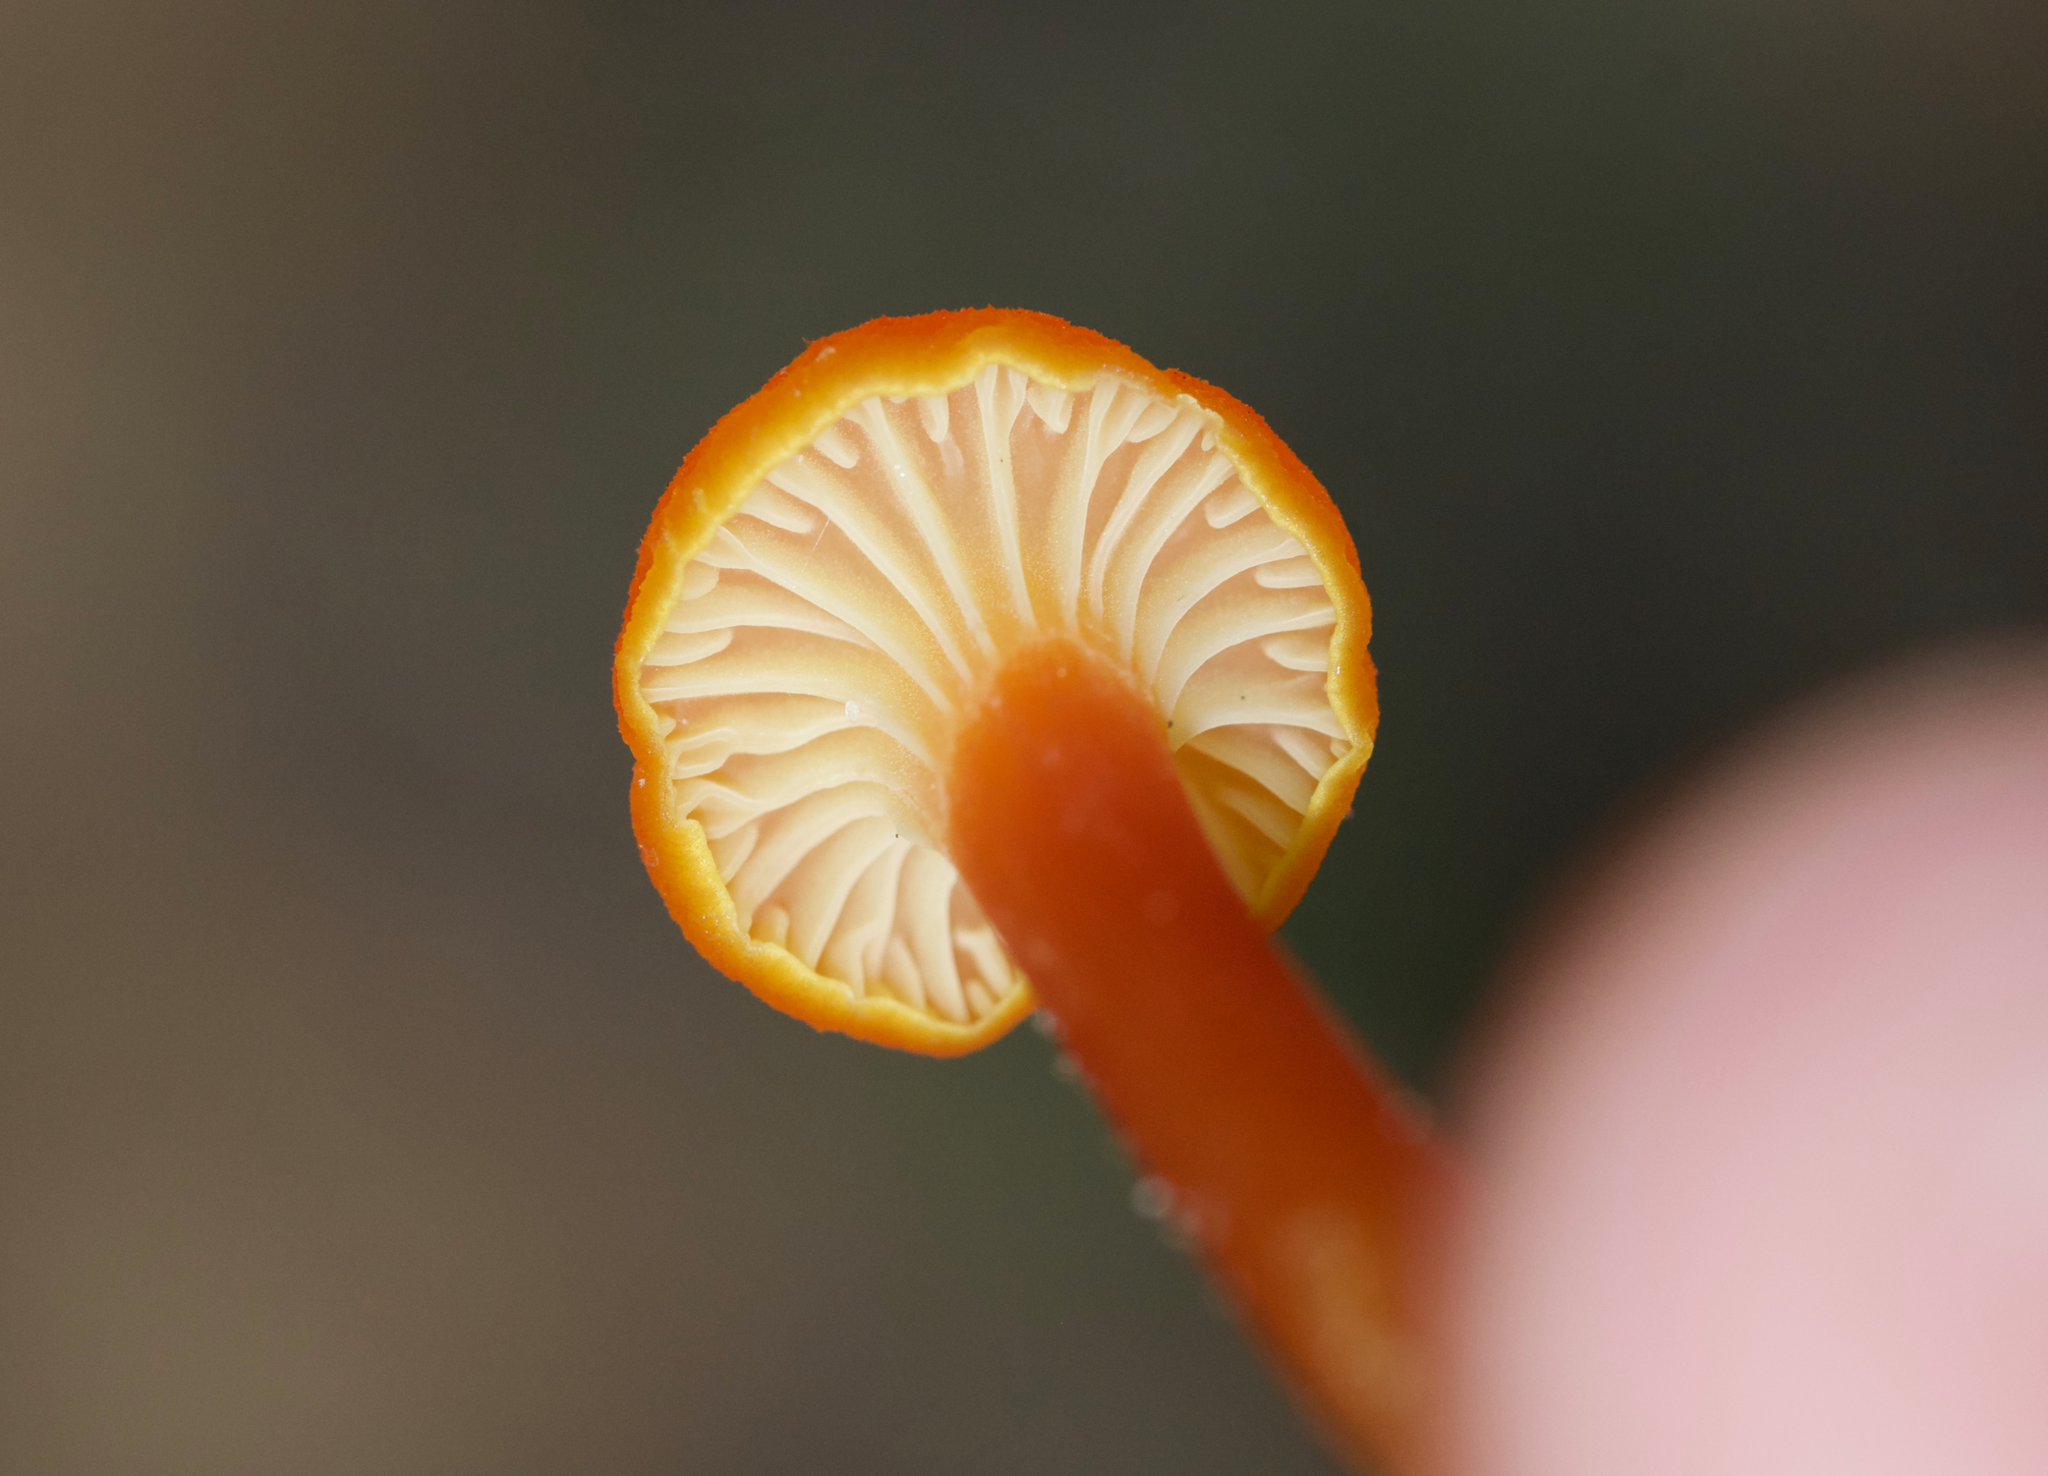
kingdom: Fungi
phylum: Basidiomycota
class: Agaricomycetes
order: Agaricales
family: Hygrophoraceae
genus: Hygrocybe
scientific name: Hygrocybe cantharellus
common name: Goblet waxcap
